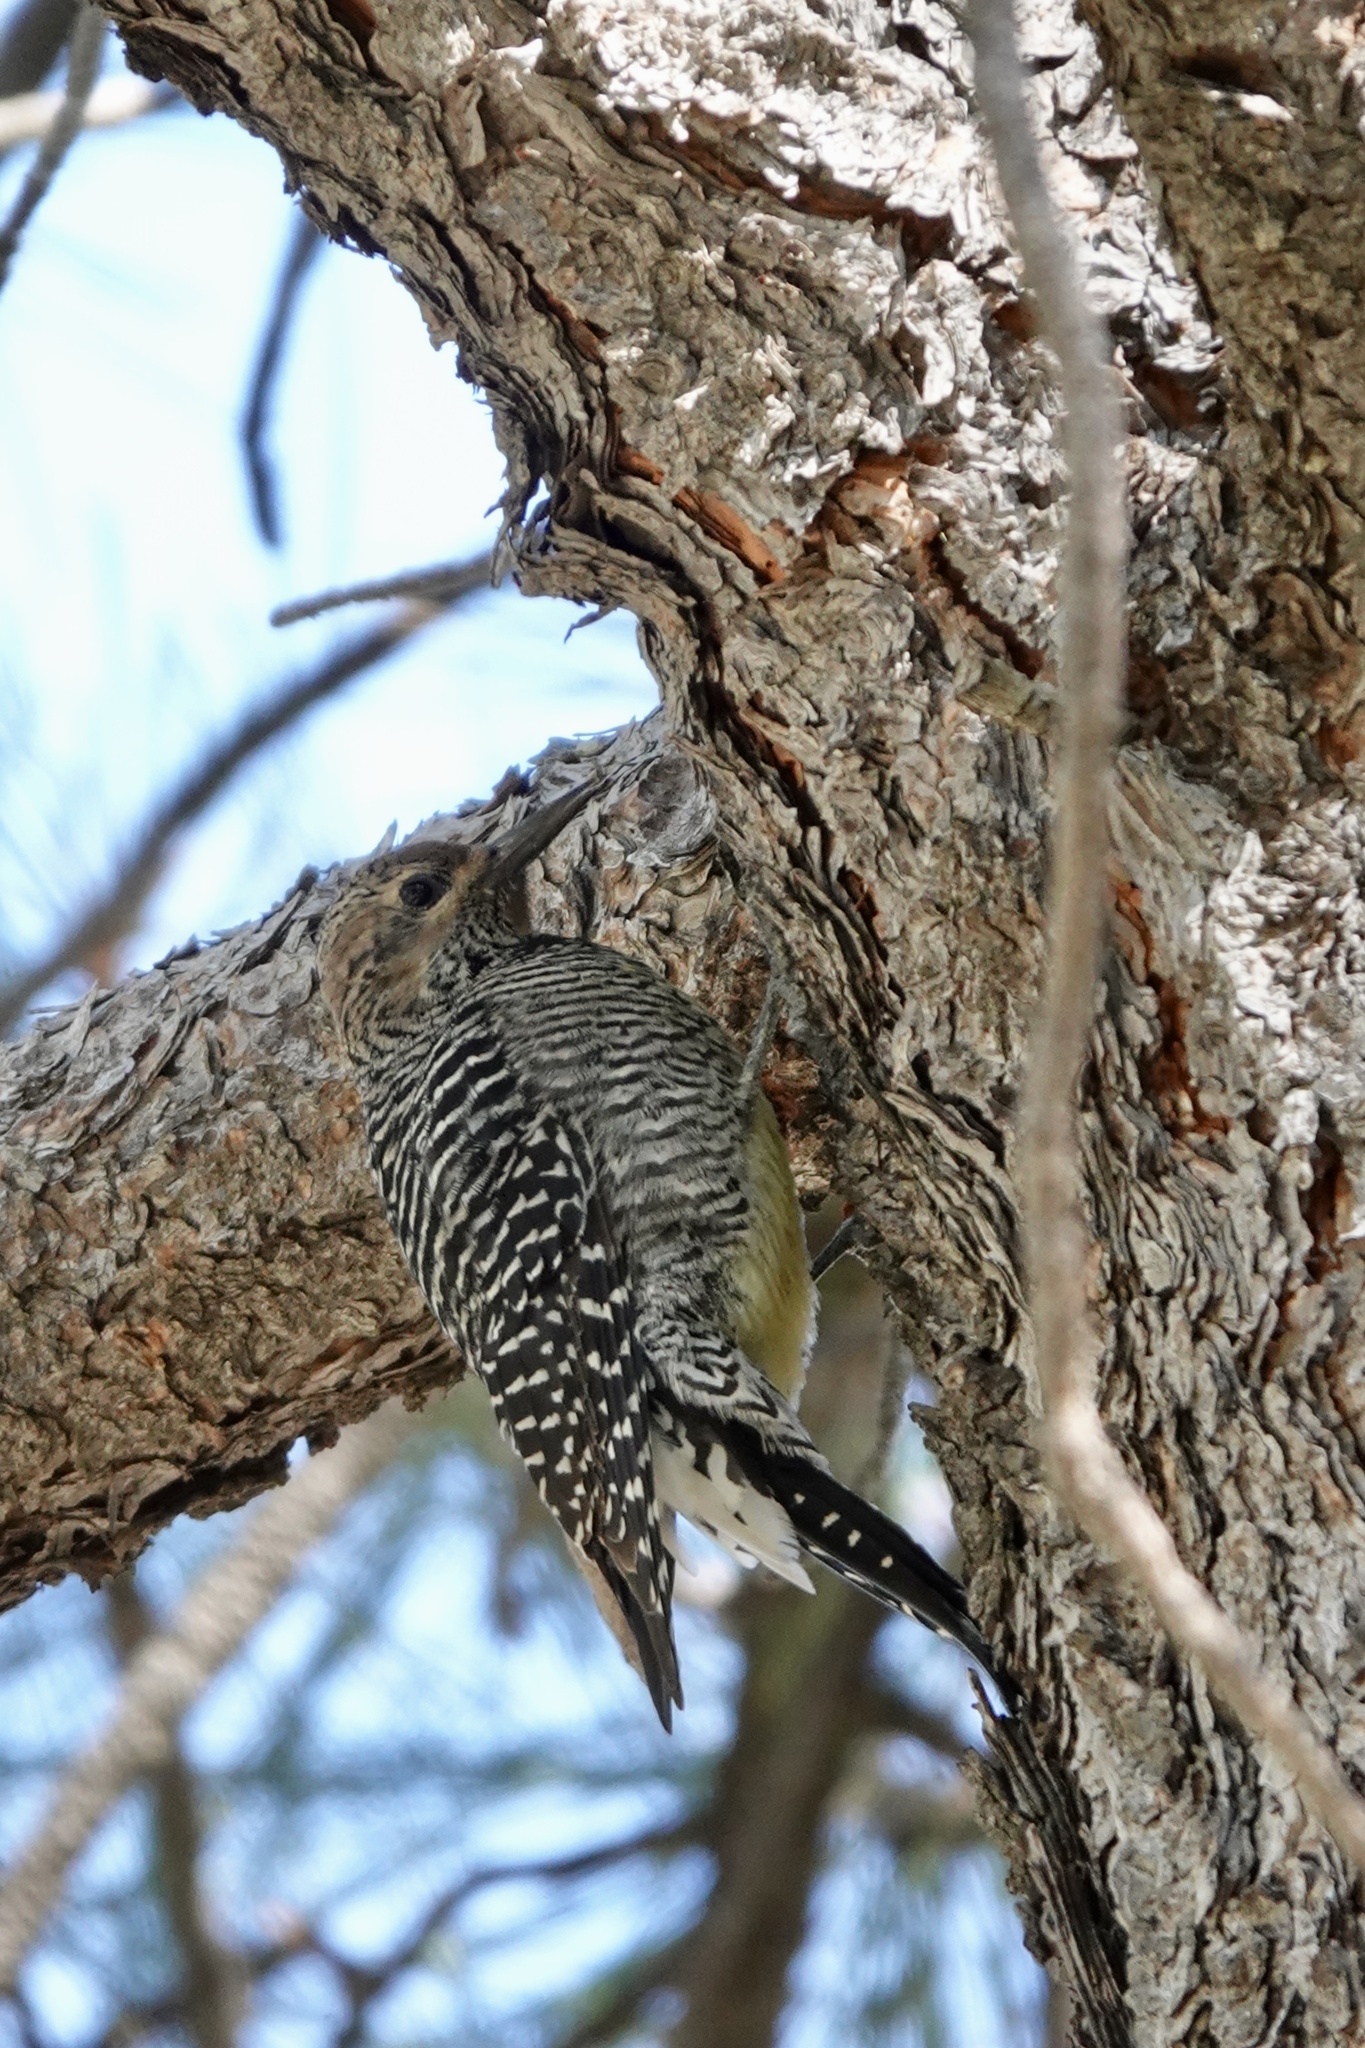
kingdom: Animalia
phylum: Chordata
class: Aves
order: Piciformes
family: Picidae
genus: Sphyrapicus
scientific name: Sphyrapicus thyroideus
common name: Williamson's sapsucker
